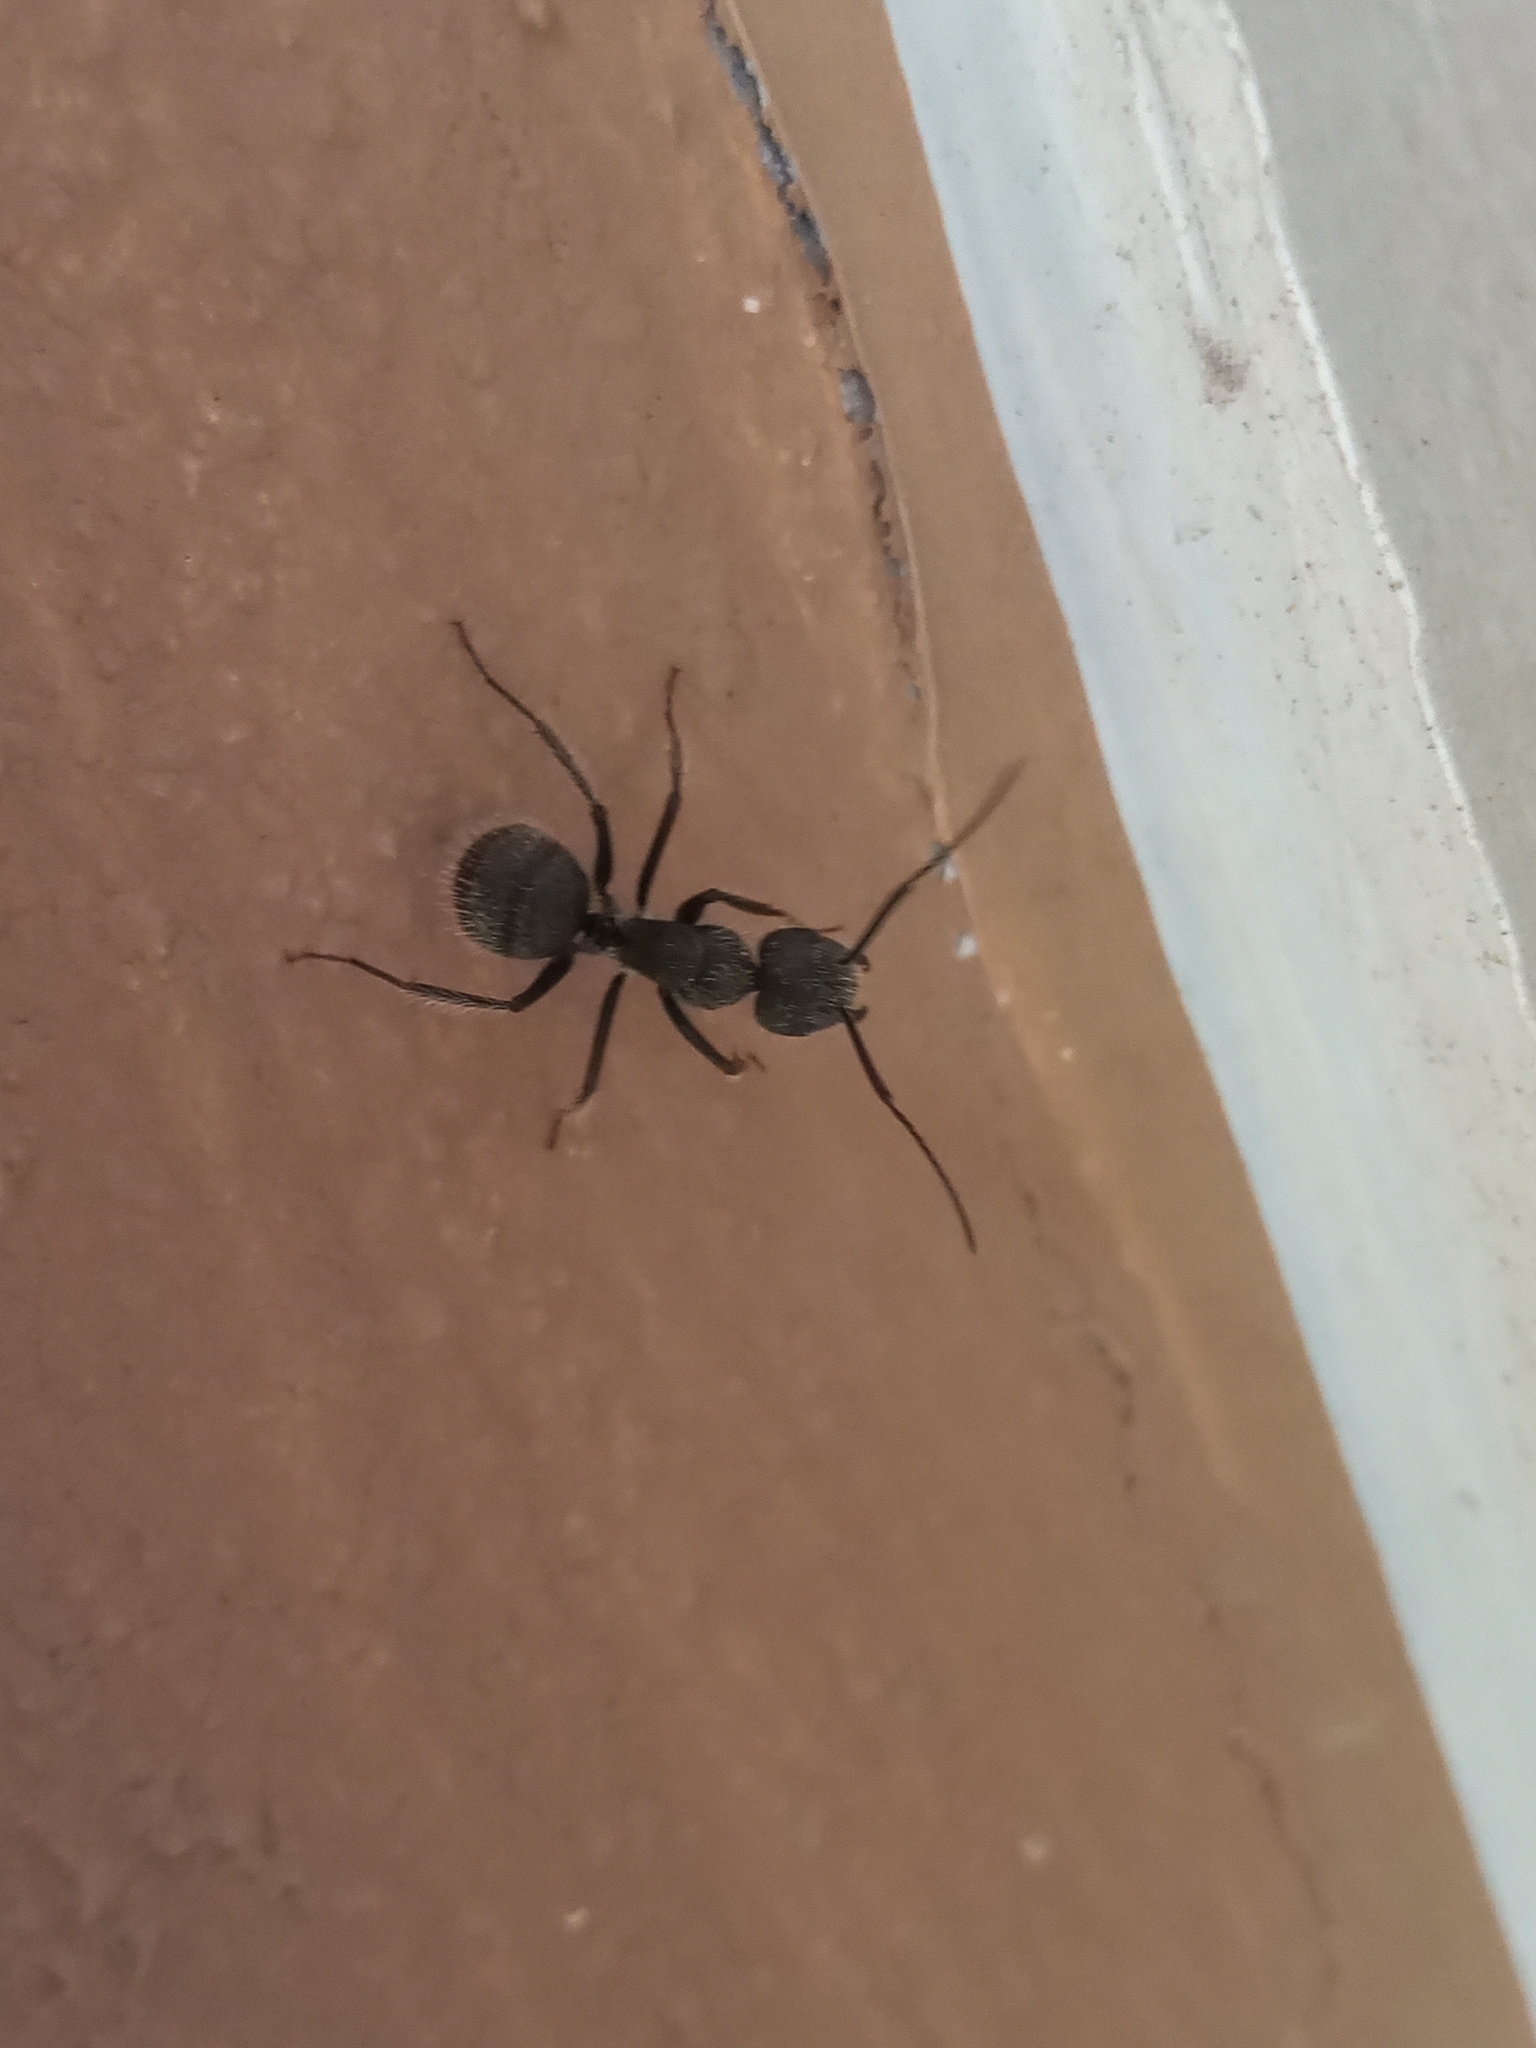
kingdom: Animalia
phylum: Arthropoda
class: Insecta
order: Hymenoptera
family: Formicidae
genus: Camponotus
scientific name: Camponotus pellarius
